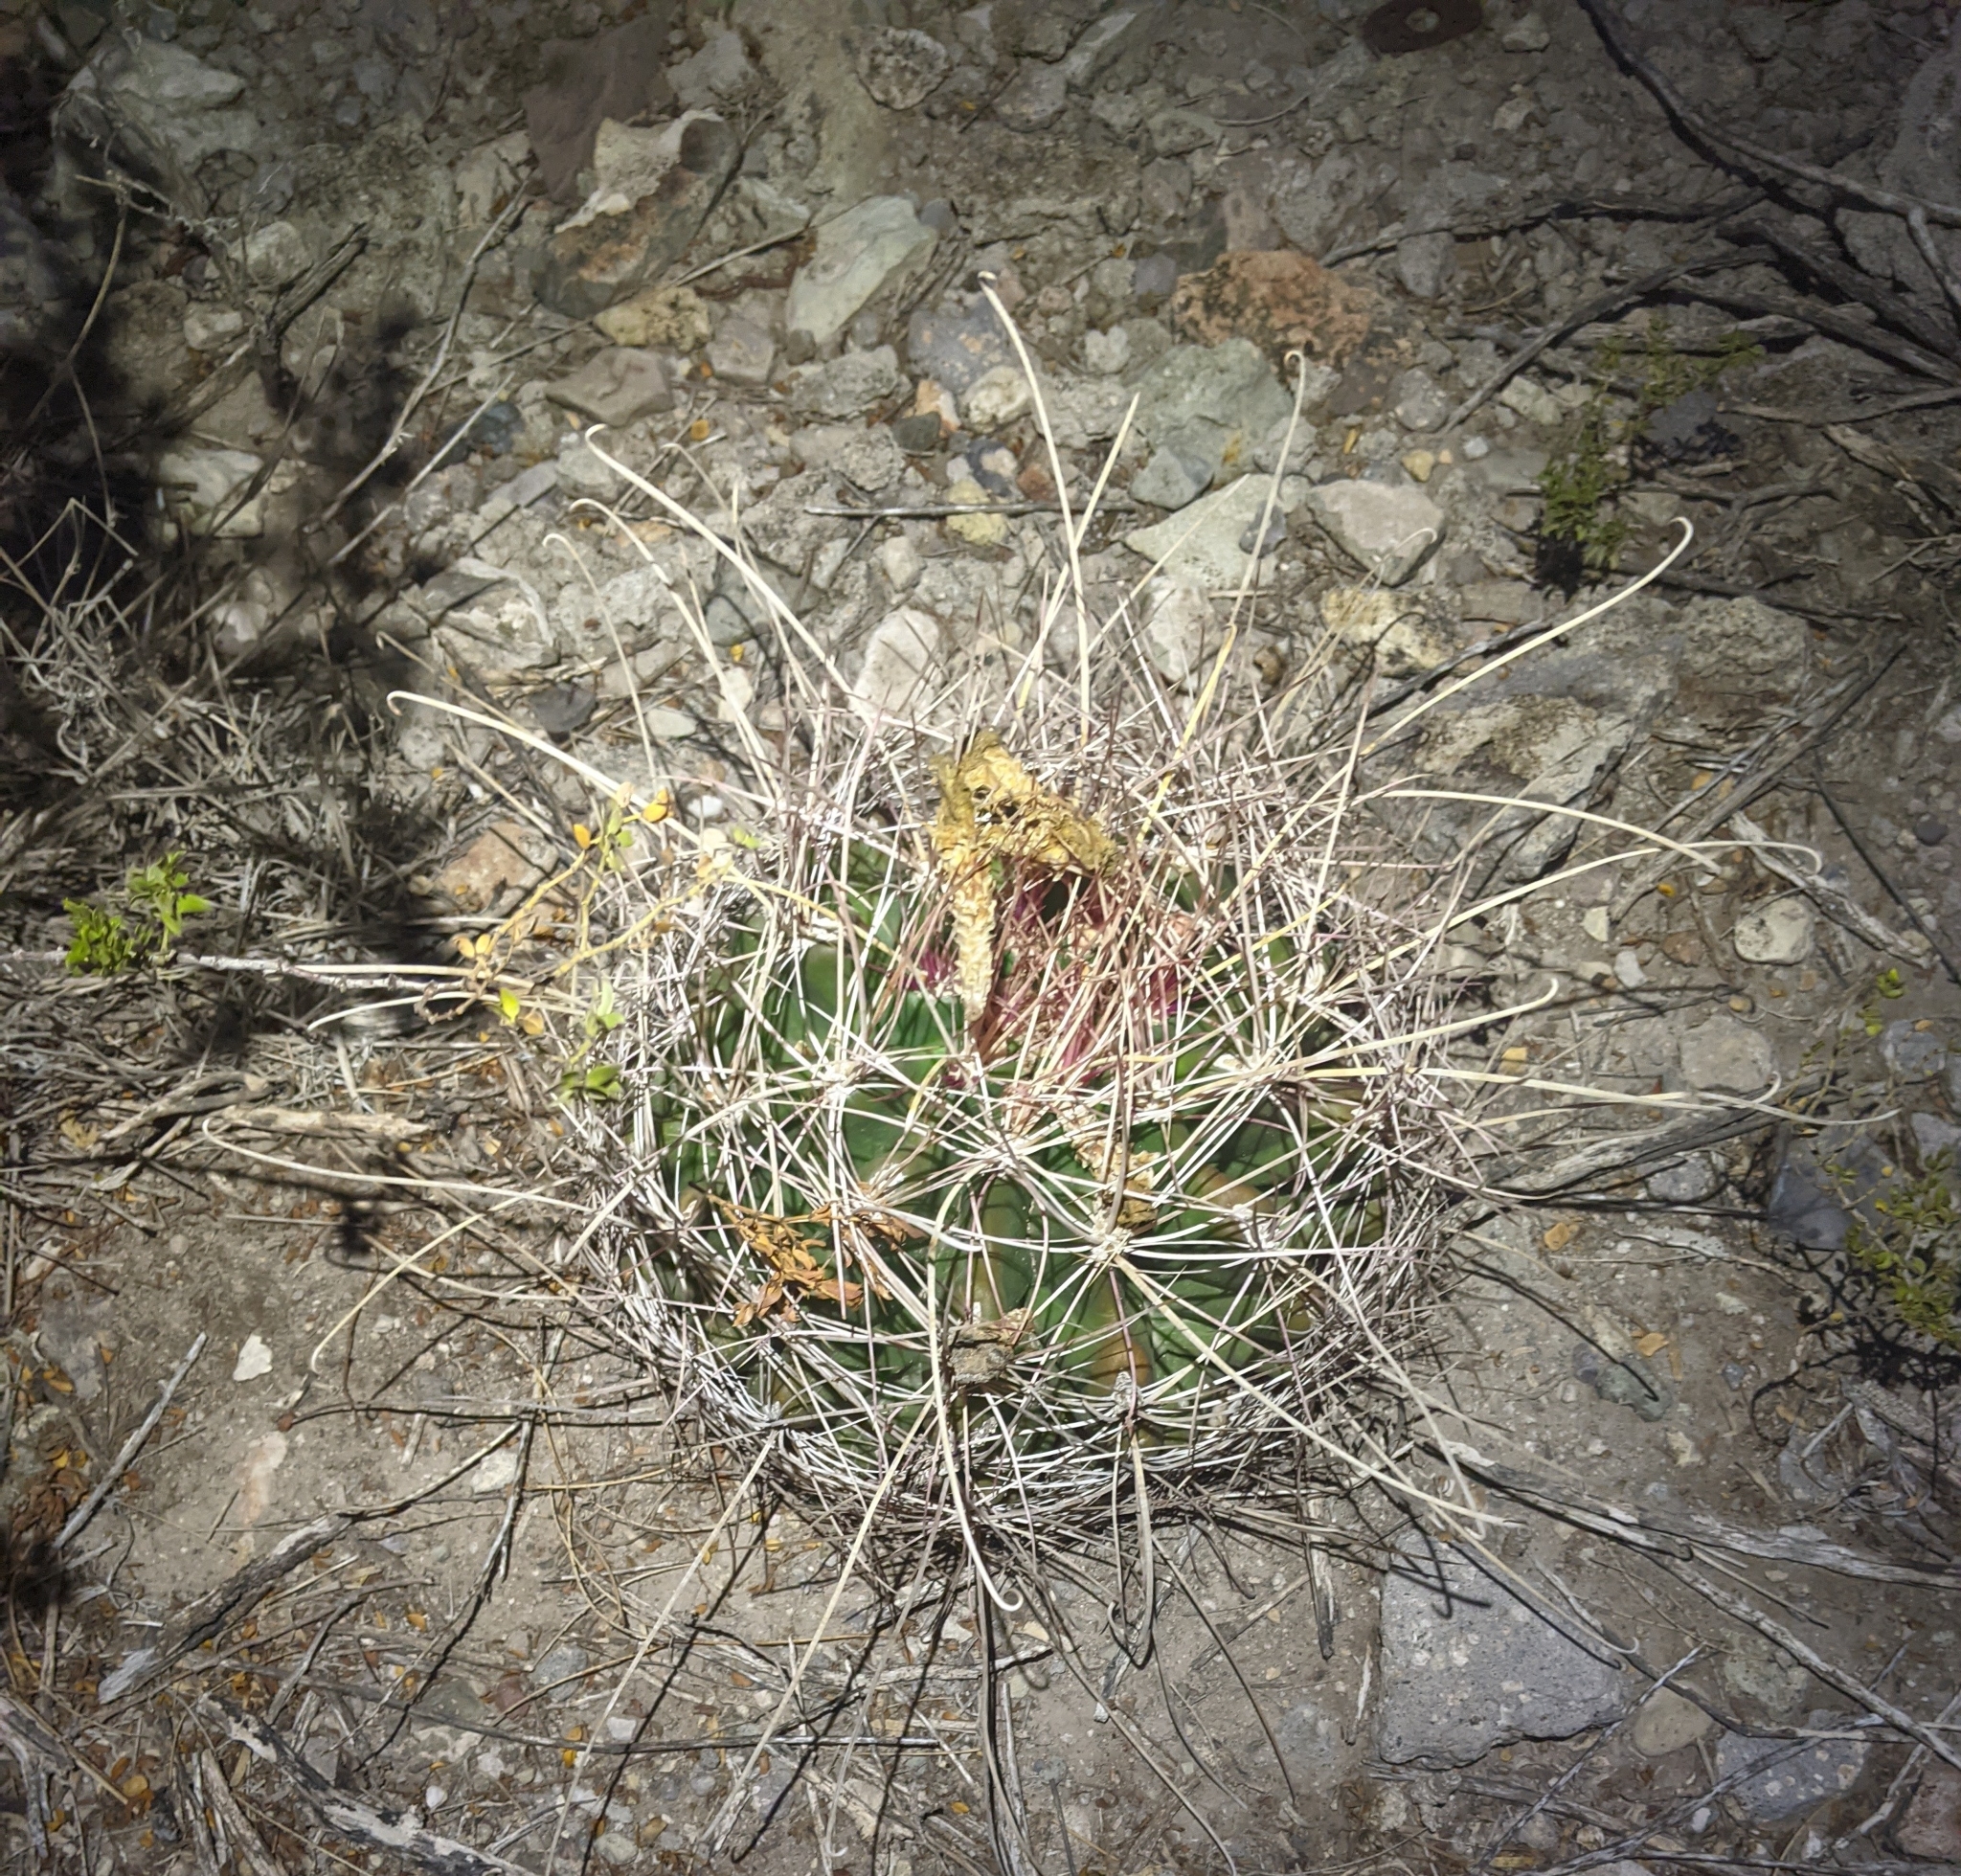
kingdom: Plantae
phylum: Tracheophyta
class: Magnoliopsida
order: Caryophyllales
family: Cactaceae
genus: Bisnaga
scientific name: Bisnaga hamatacantha
